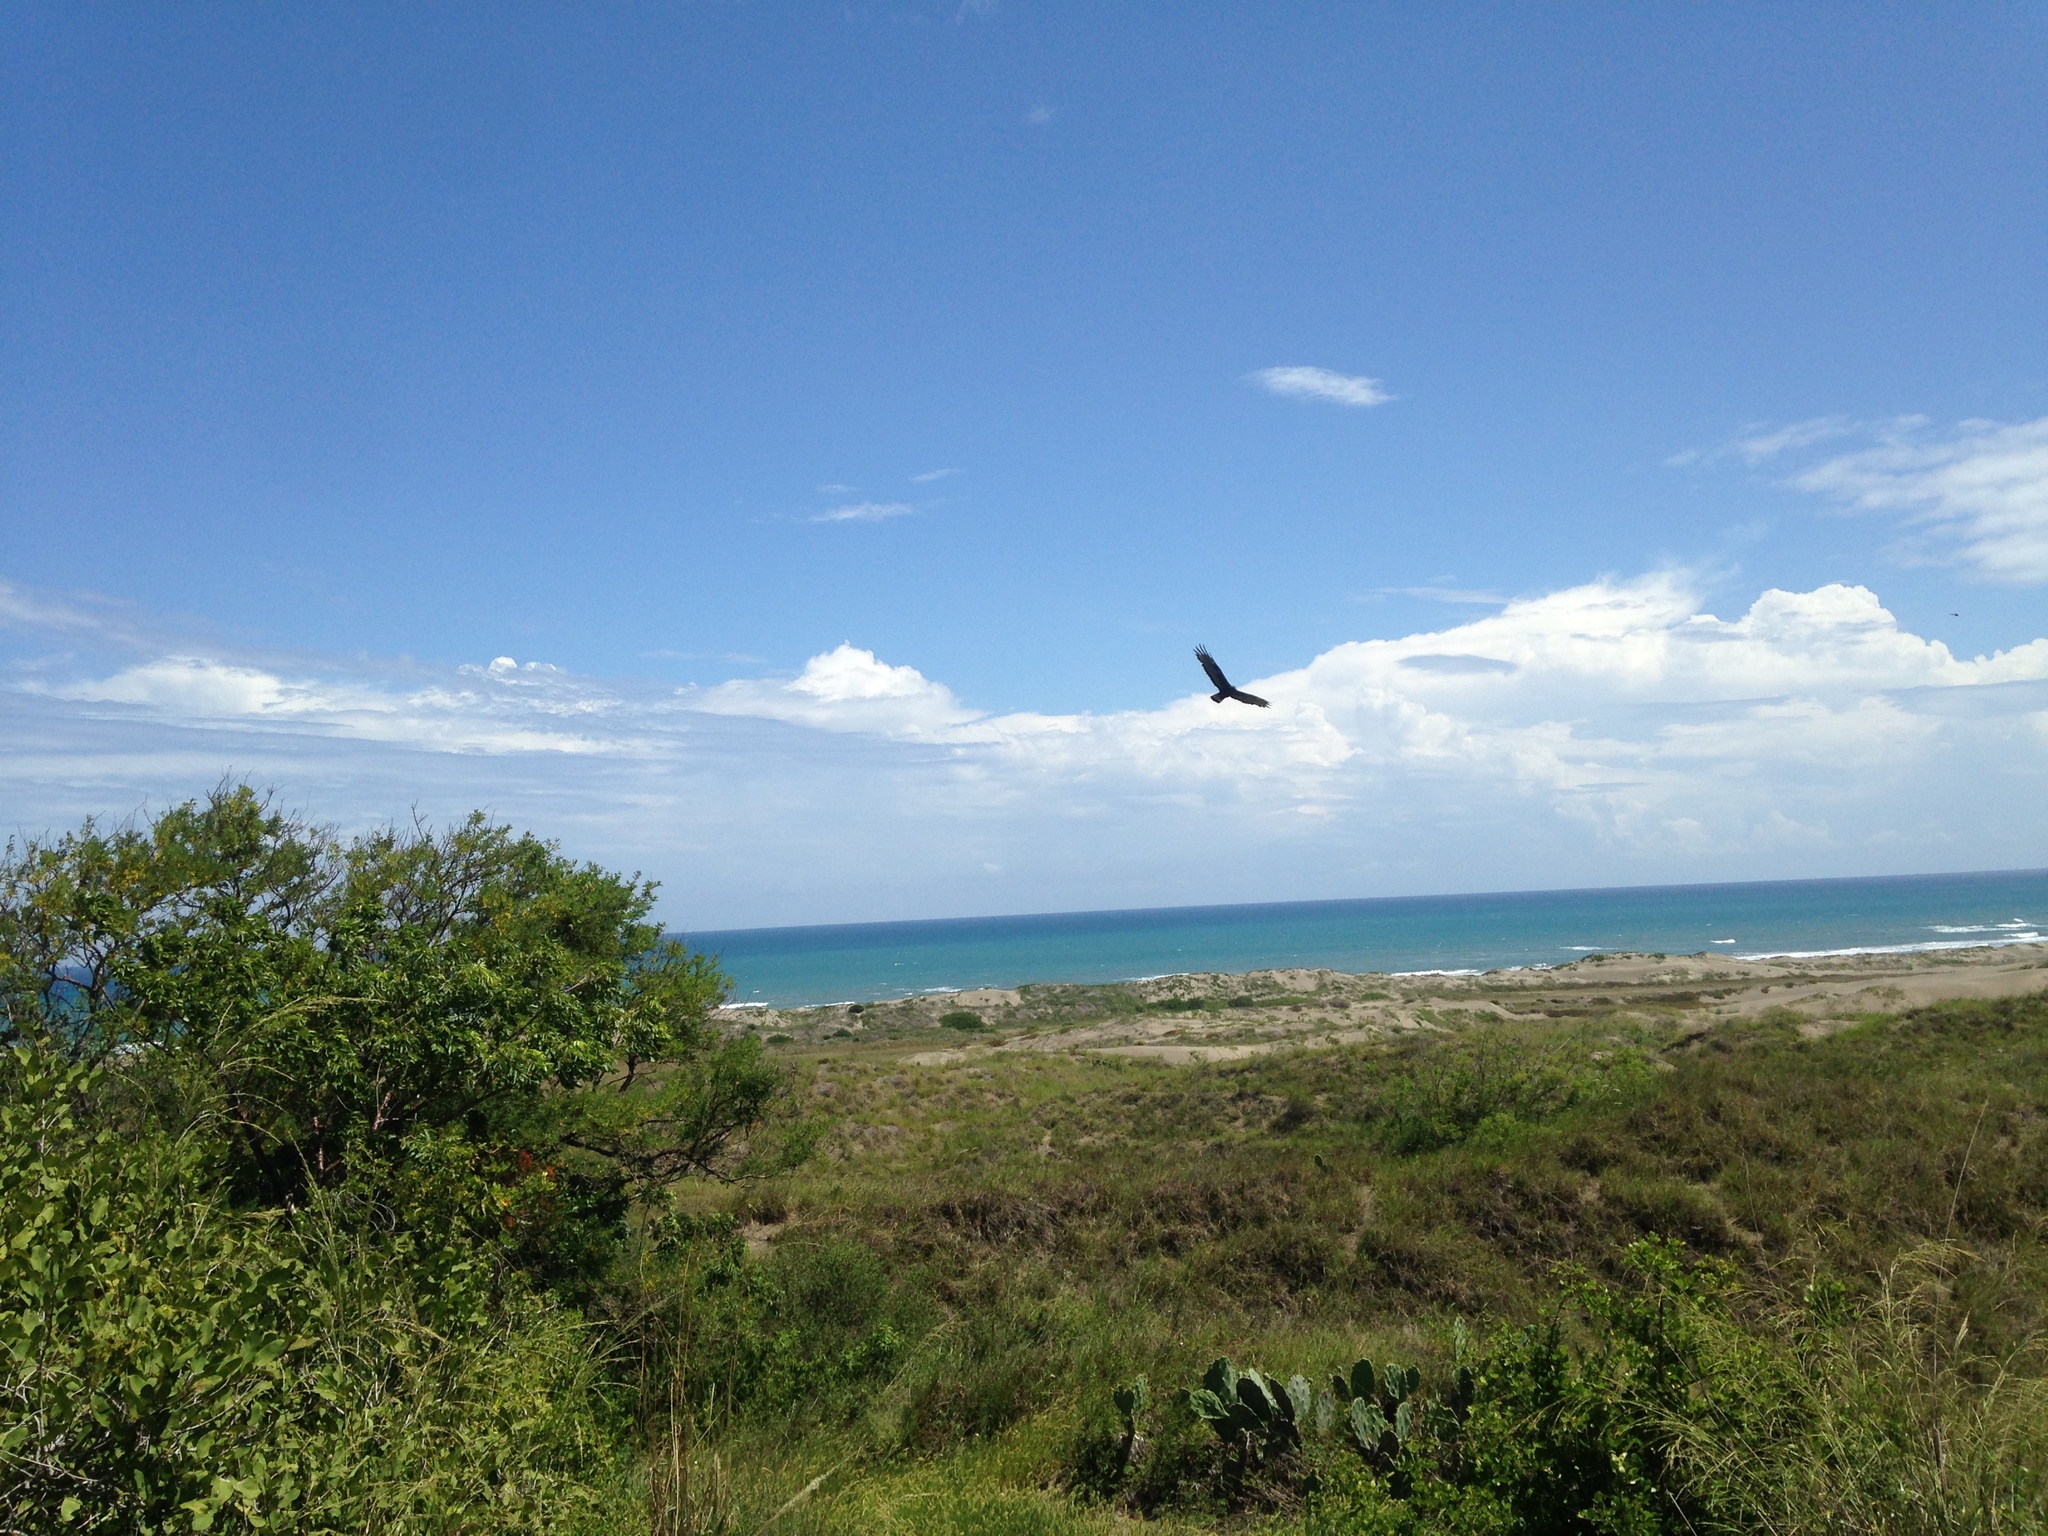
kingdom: Animalia
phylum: Chordata
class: Aves
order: Accipitriformes
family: Accipitridae
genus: Buteo
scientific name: Buteo albonotatus
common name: Zone-tailed hawk
